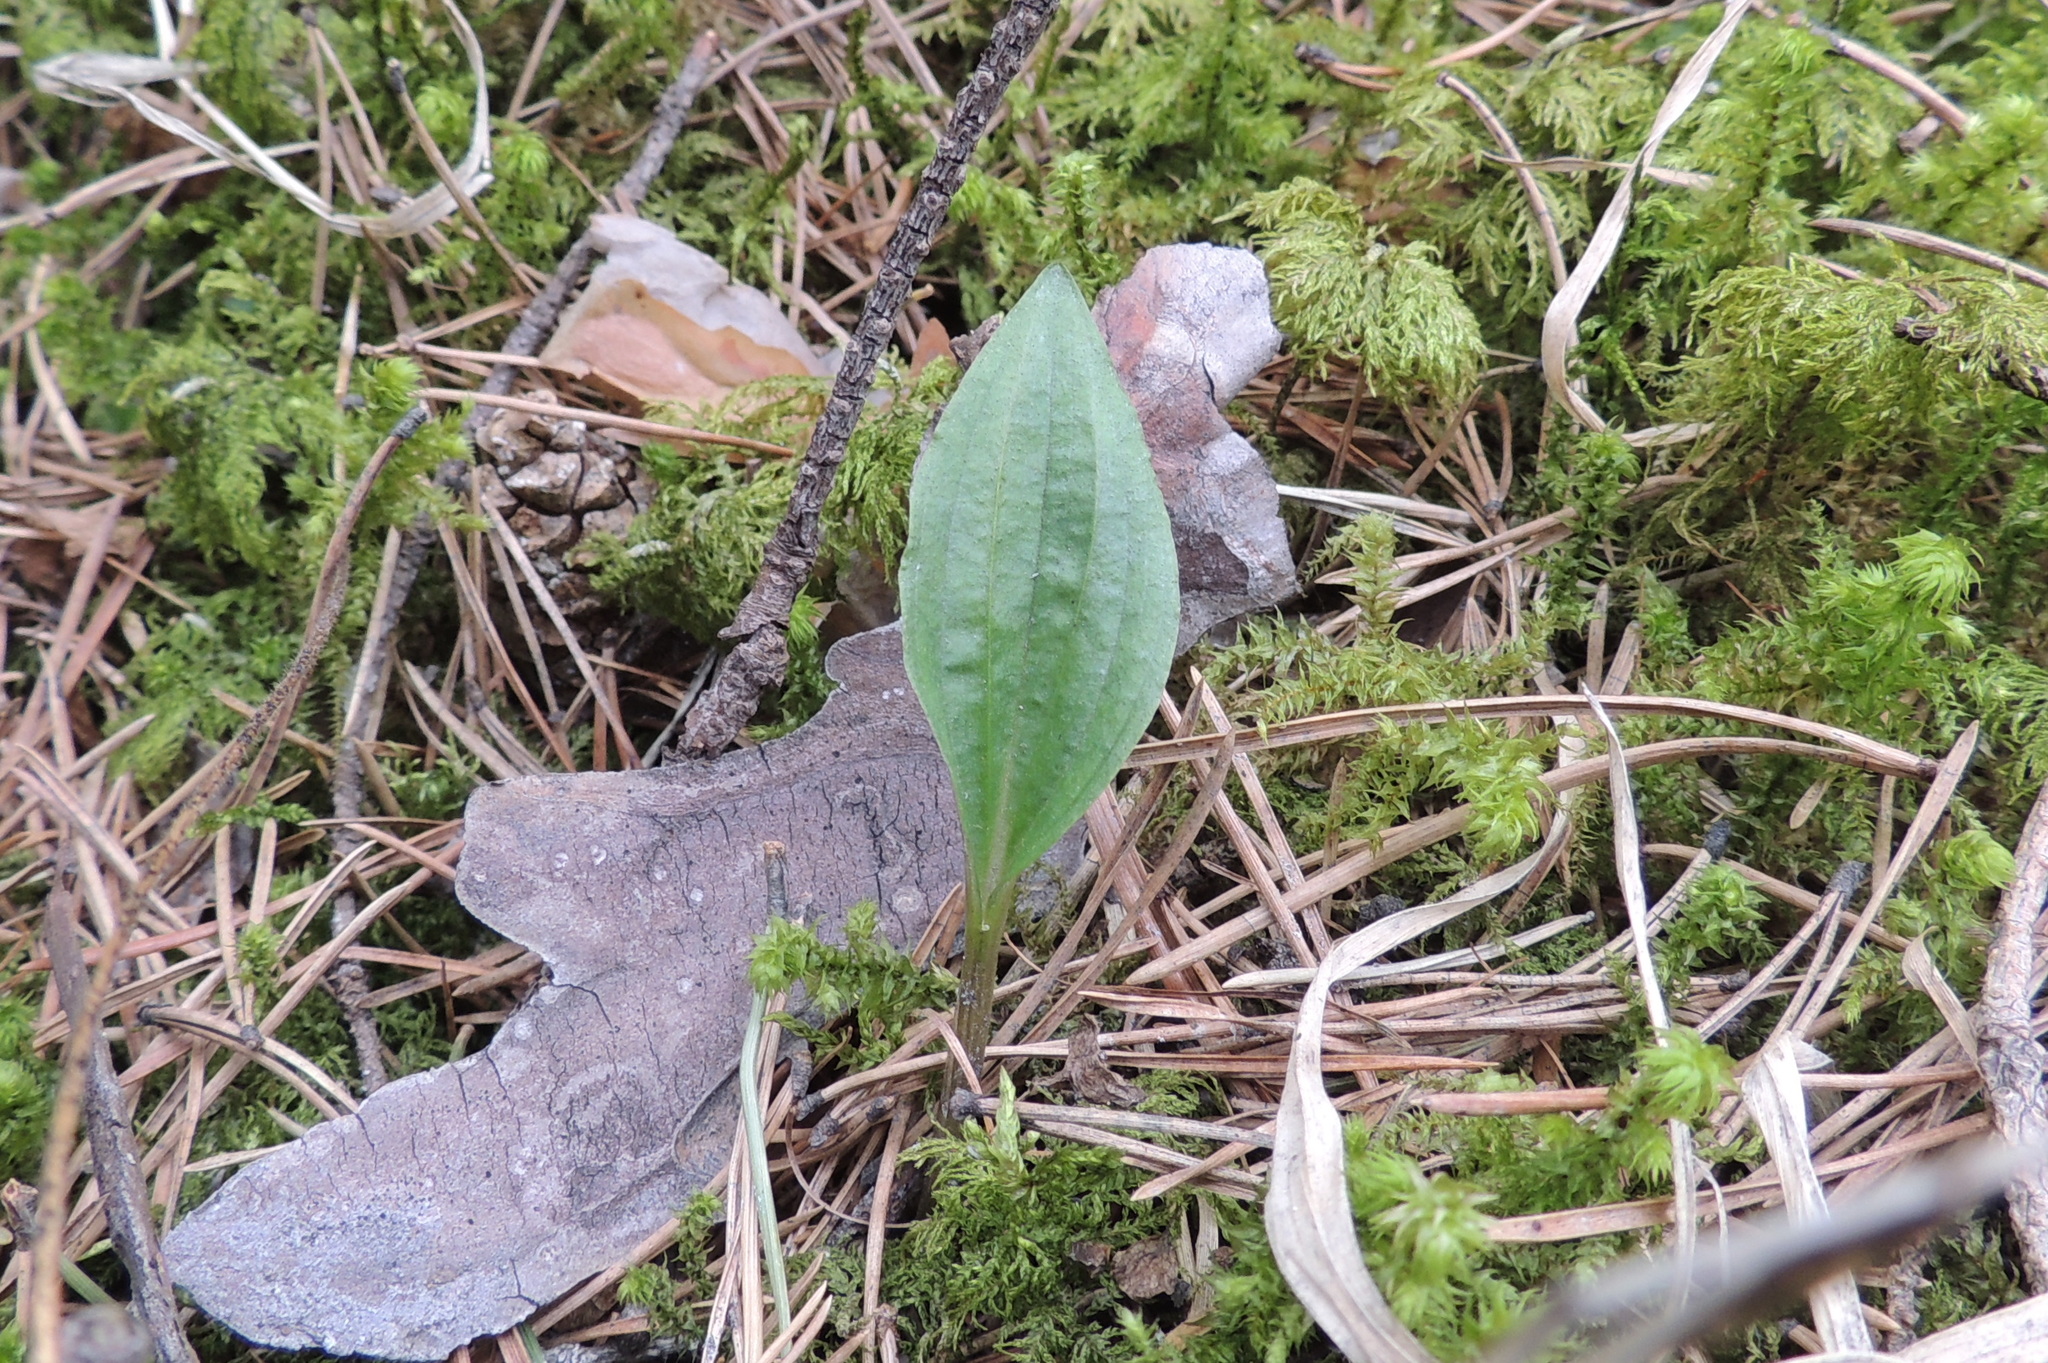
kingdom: Plantae
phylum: Tracheophyta
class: Liliopsida
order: Asparagales
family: Orchidaceae
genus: Calypso
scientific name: Calypso bulbosa
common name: Calypso
